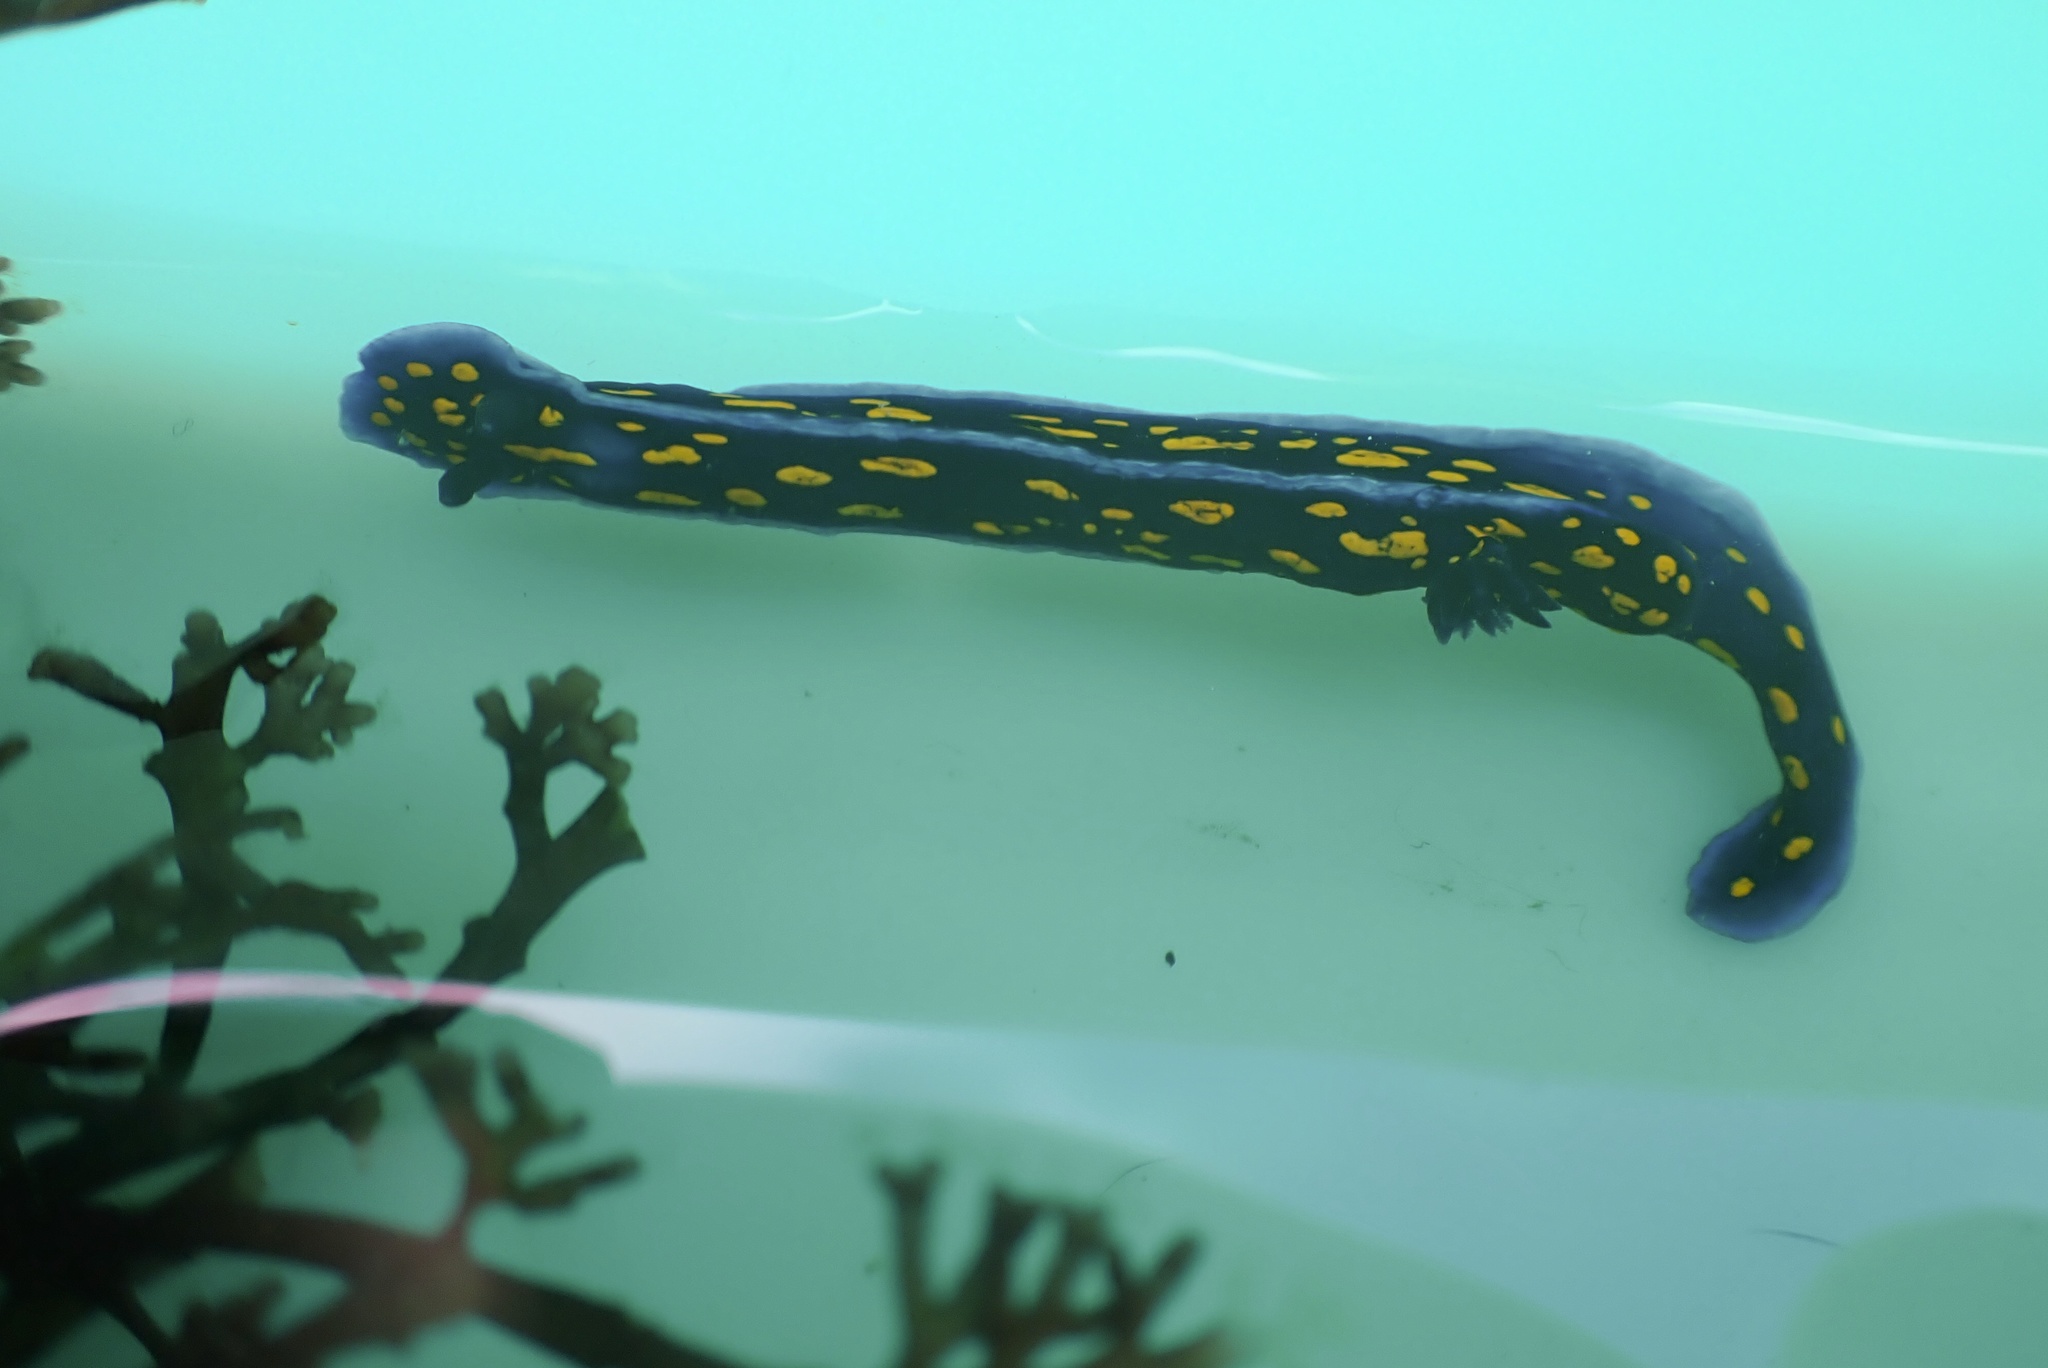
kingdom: Animalia
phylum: Mollusca
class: Gastropoda
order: Nudibranchia
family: Chromodorididae
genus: Felimare
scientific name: Felimare californiensis
